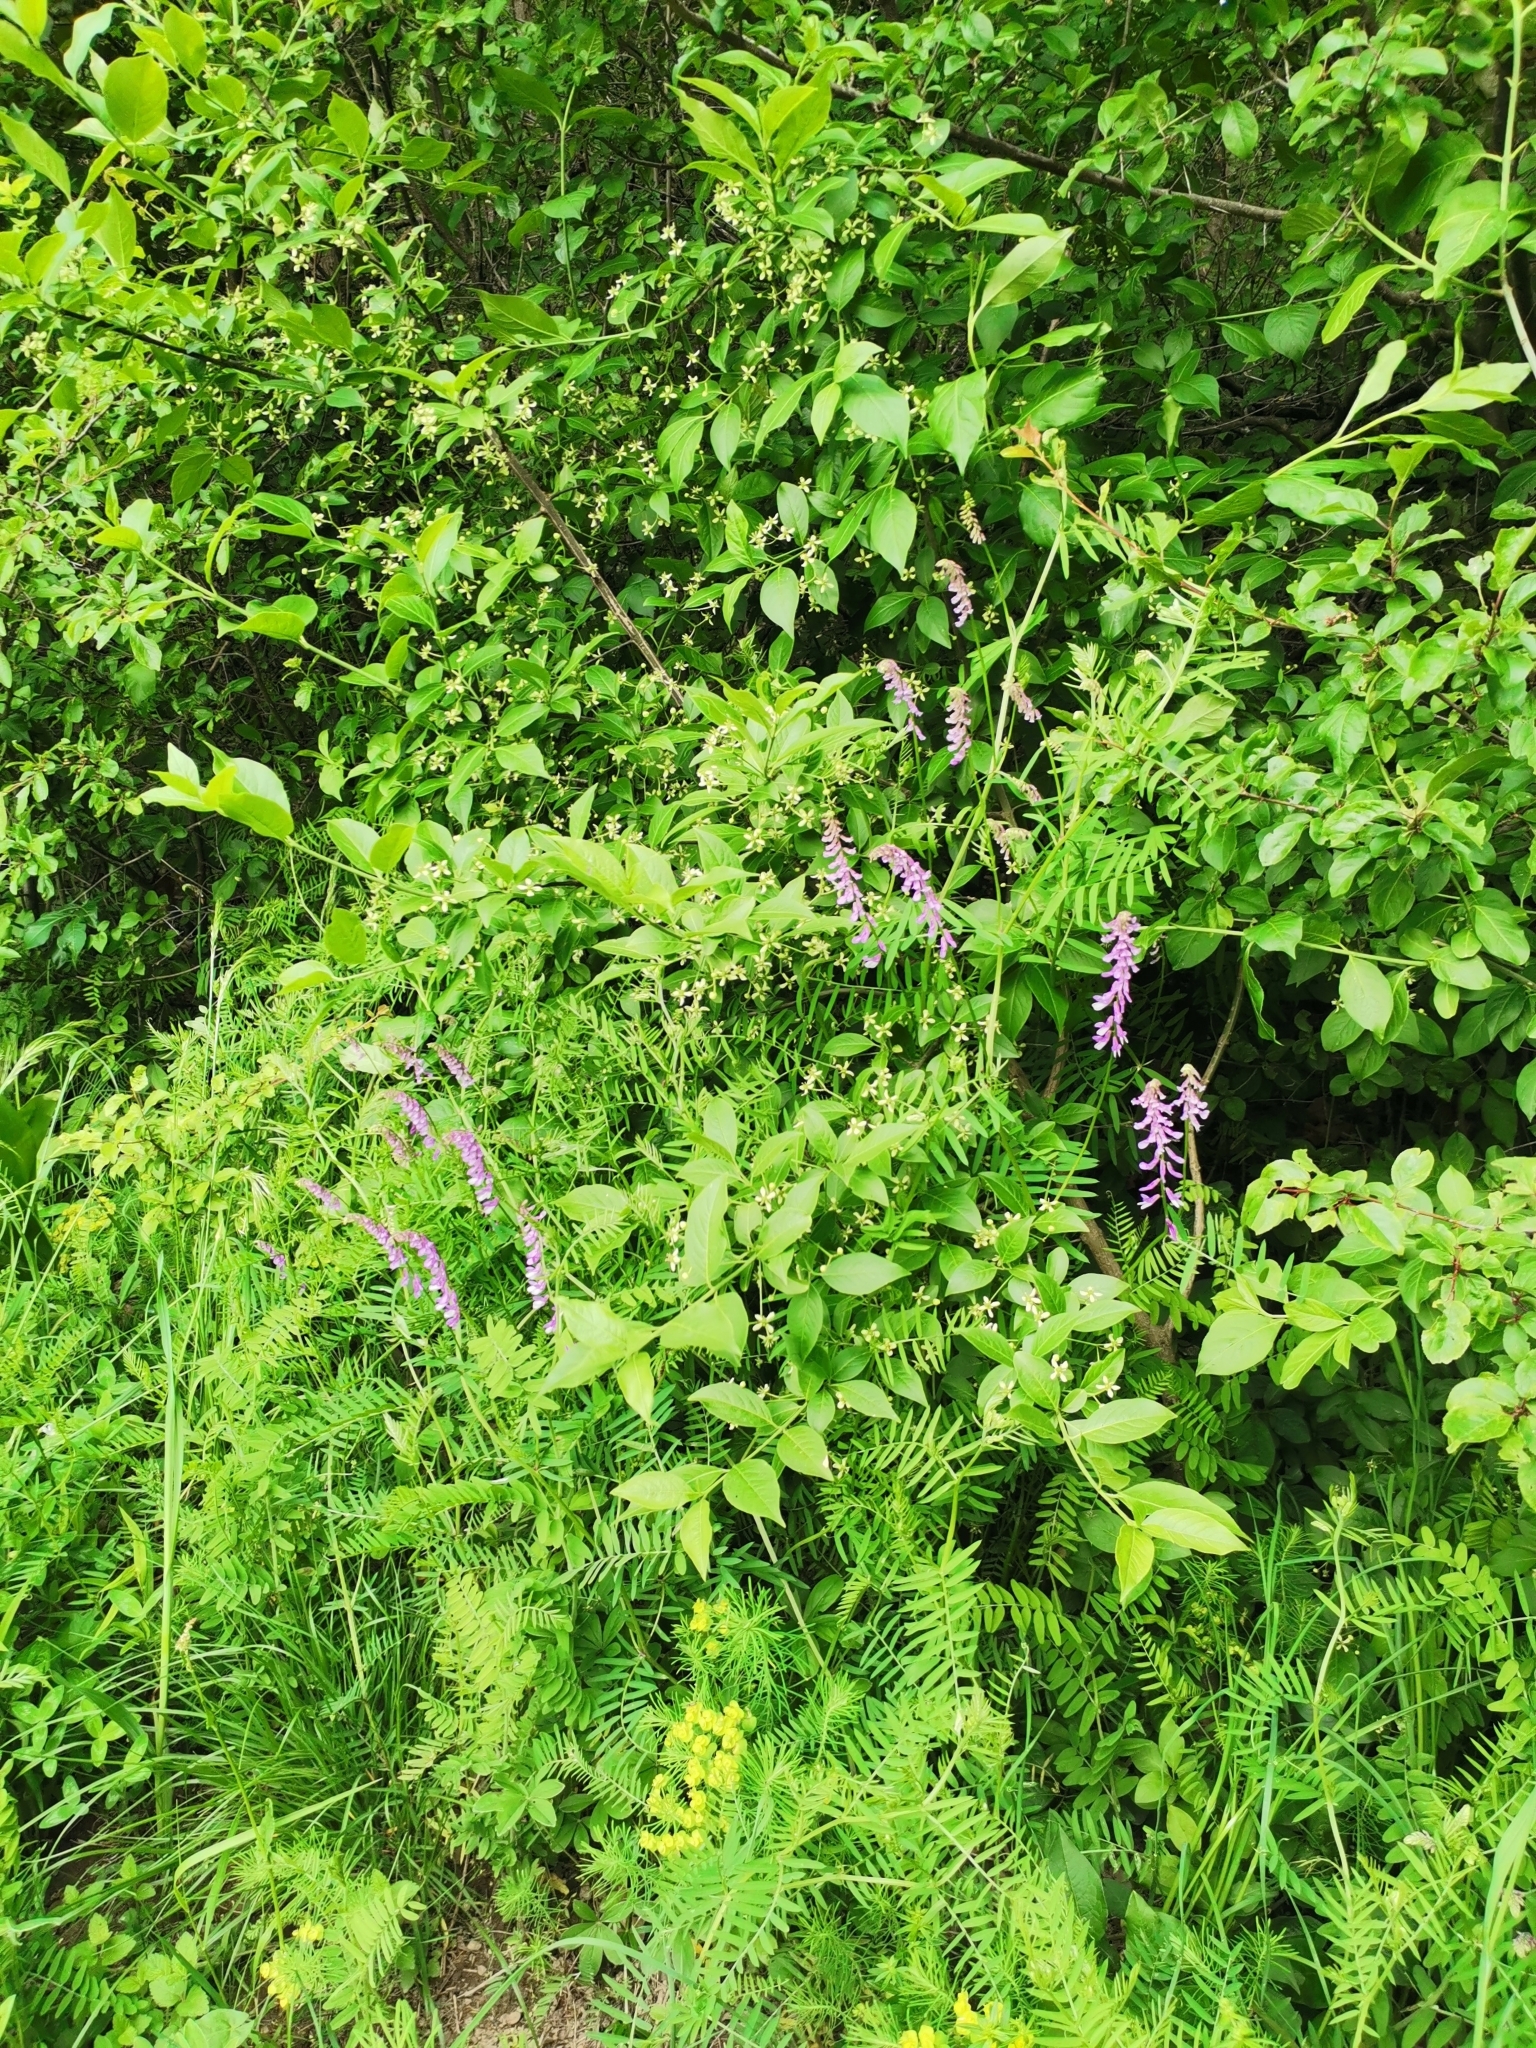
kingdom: Plantae
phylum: Tracheophyta
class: Magnoliopsida
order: Fabales
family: Fabaceae
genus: Vicia
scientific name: Vicia tenuifolia
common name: Fine-leaved vetch
